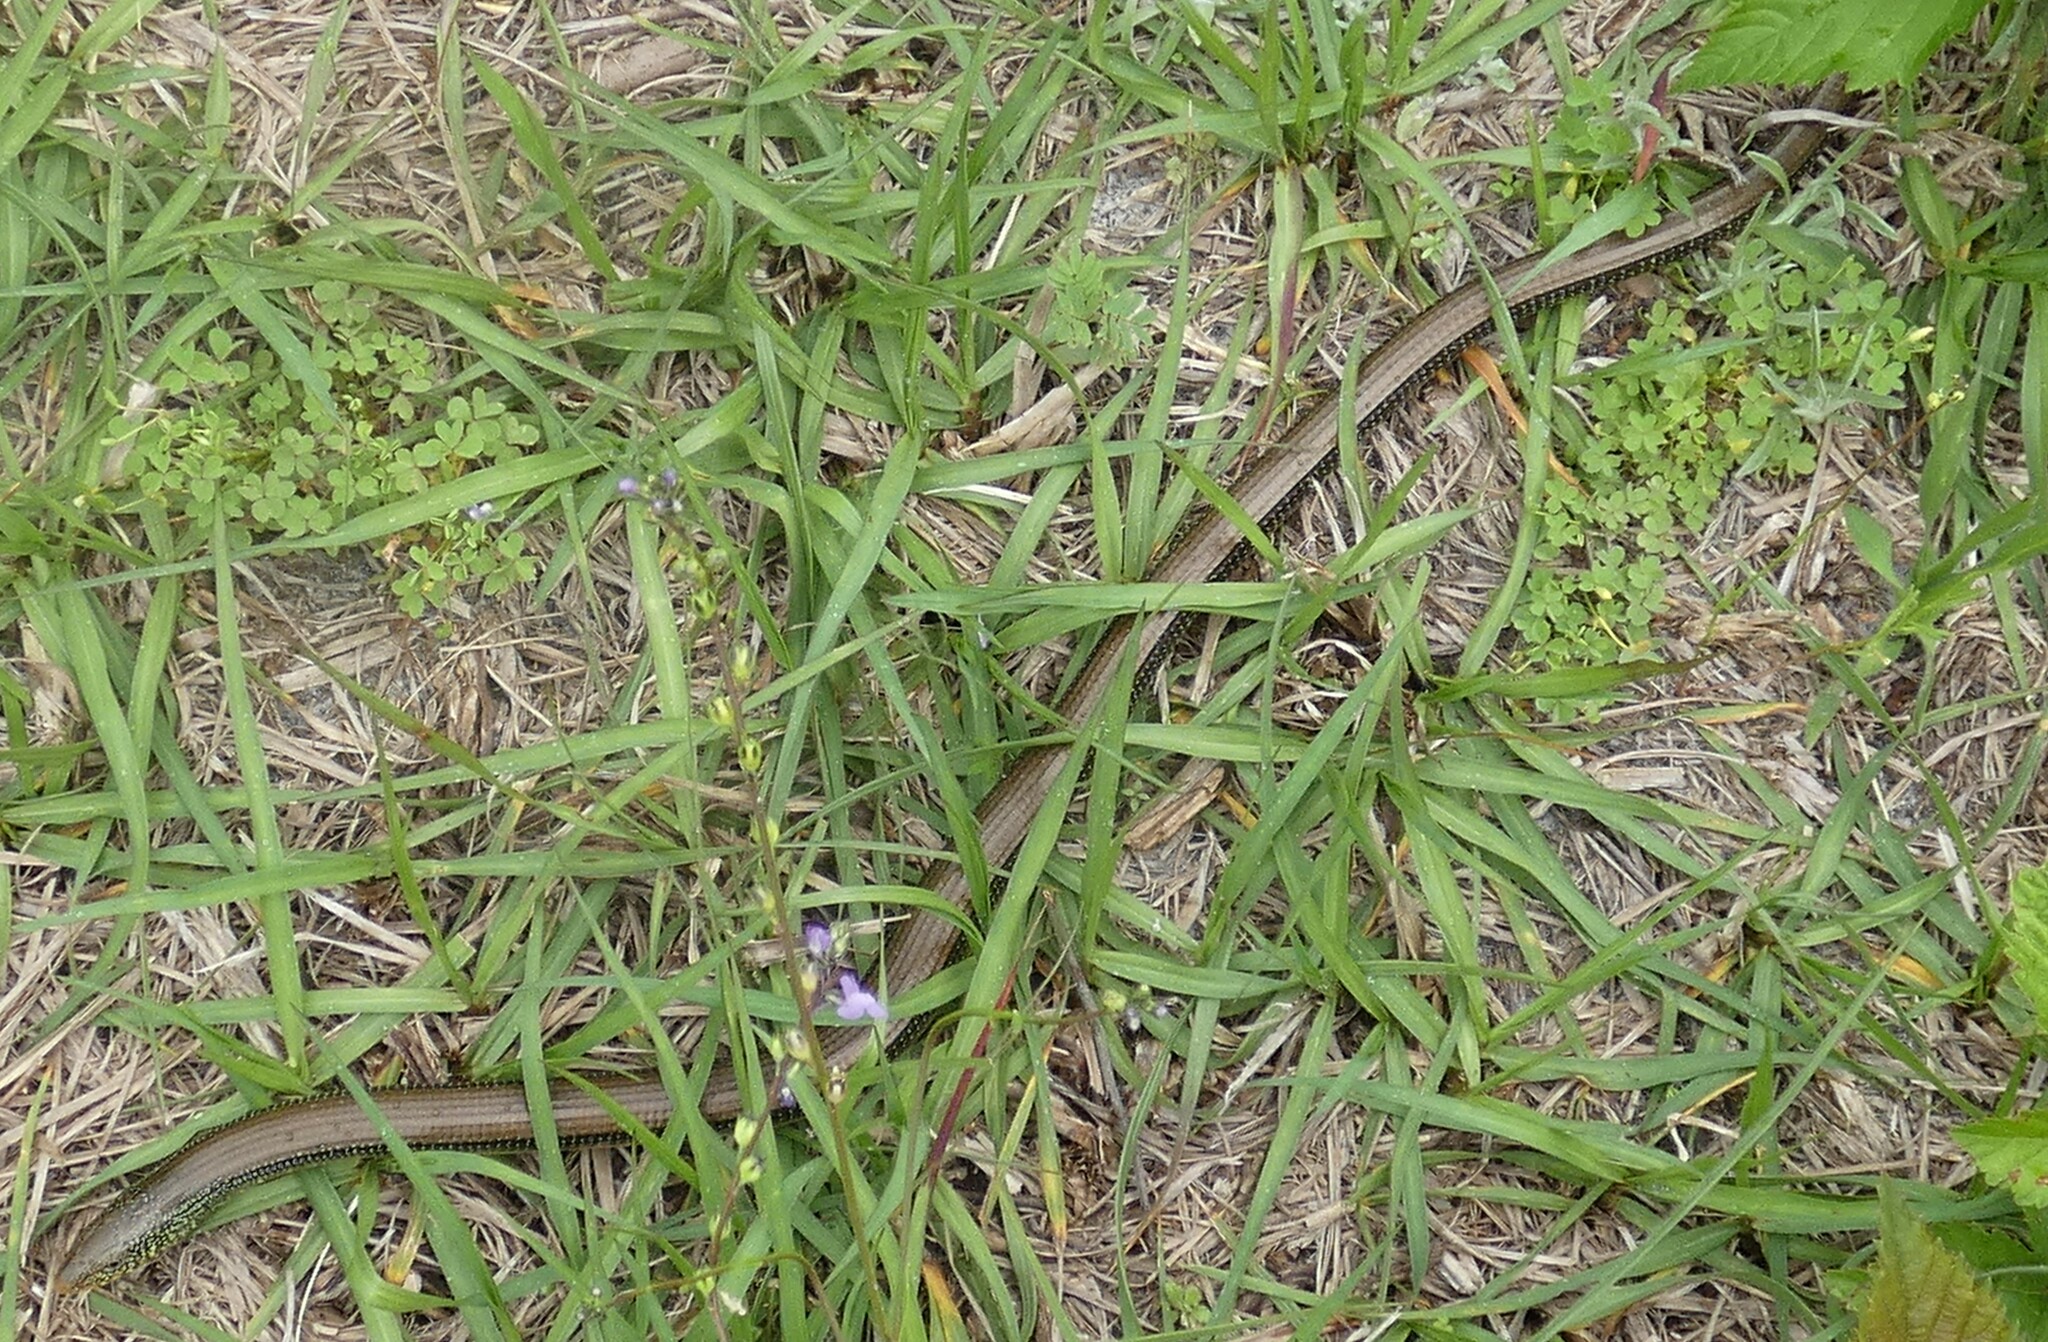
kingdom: Animalia
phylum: Chordata
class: Squamata
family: Anguidae
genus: Ophisaurus
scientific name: Ophisaurus ventralis
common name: Eastern glass lizard
